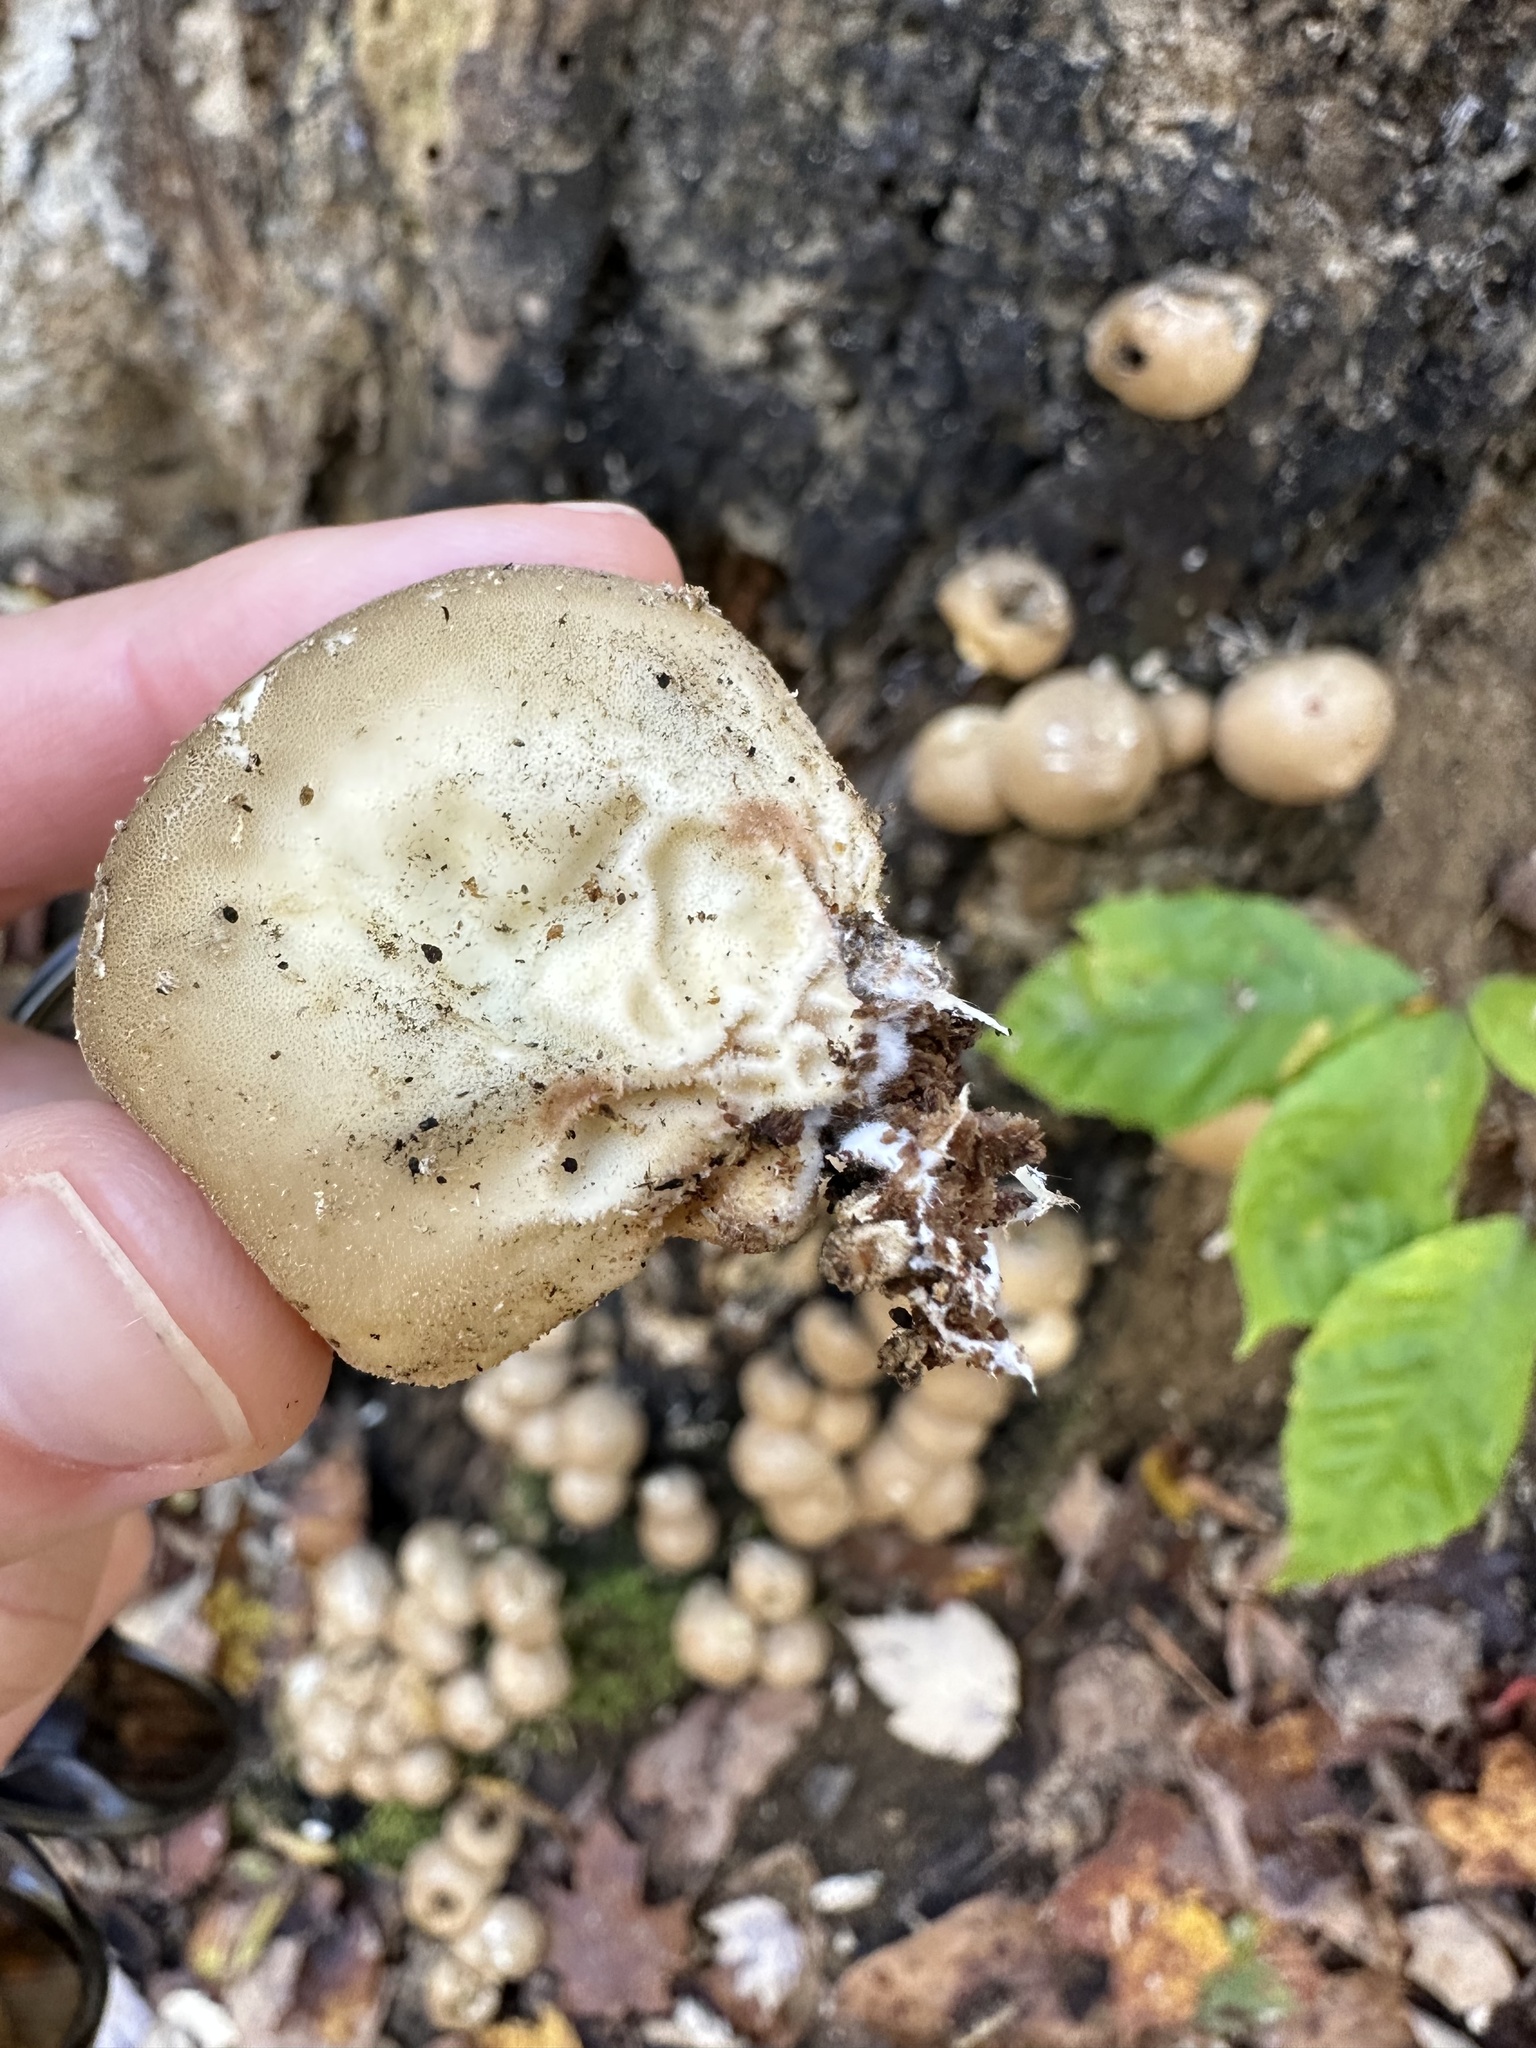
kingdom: Fungi
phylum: Basidiomycota
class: Agaricomycetes
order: Agaricales
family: Lycoperdaceae
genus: Apioperdon
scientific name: Apioperdon pyriforme
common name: Pear-shaped puffball
